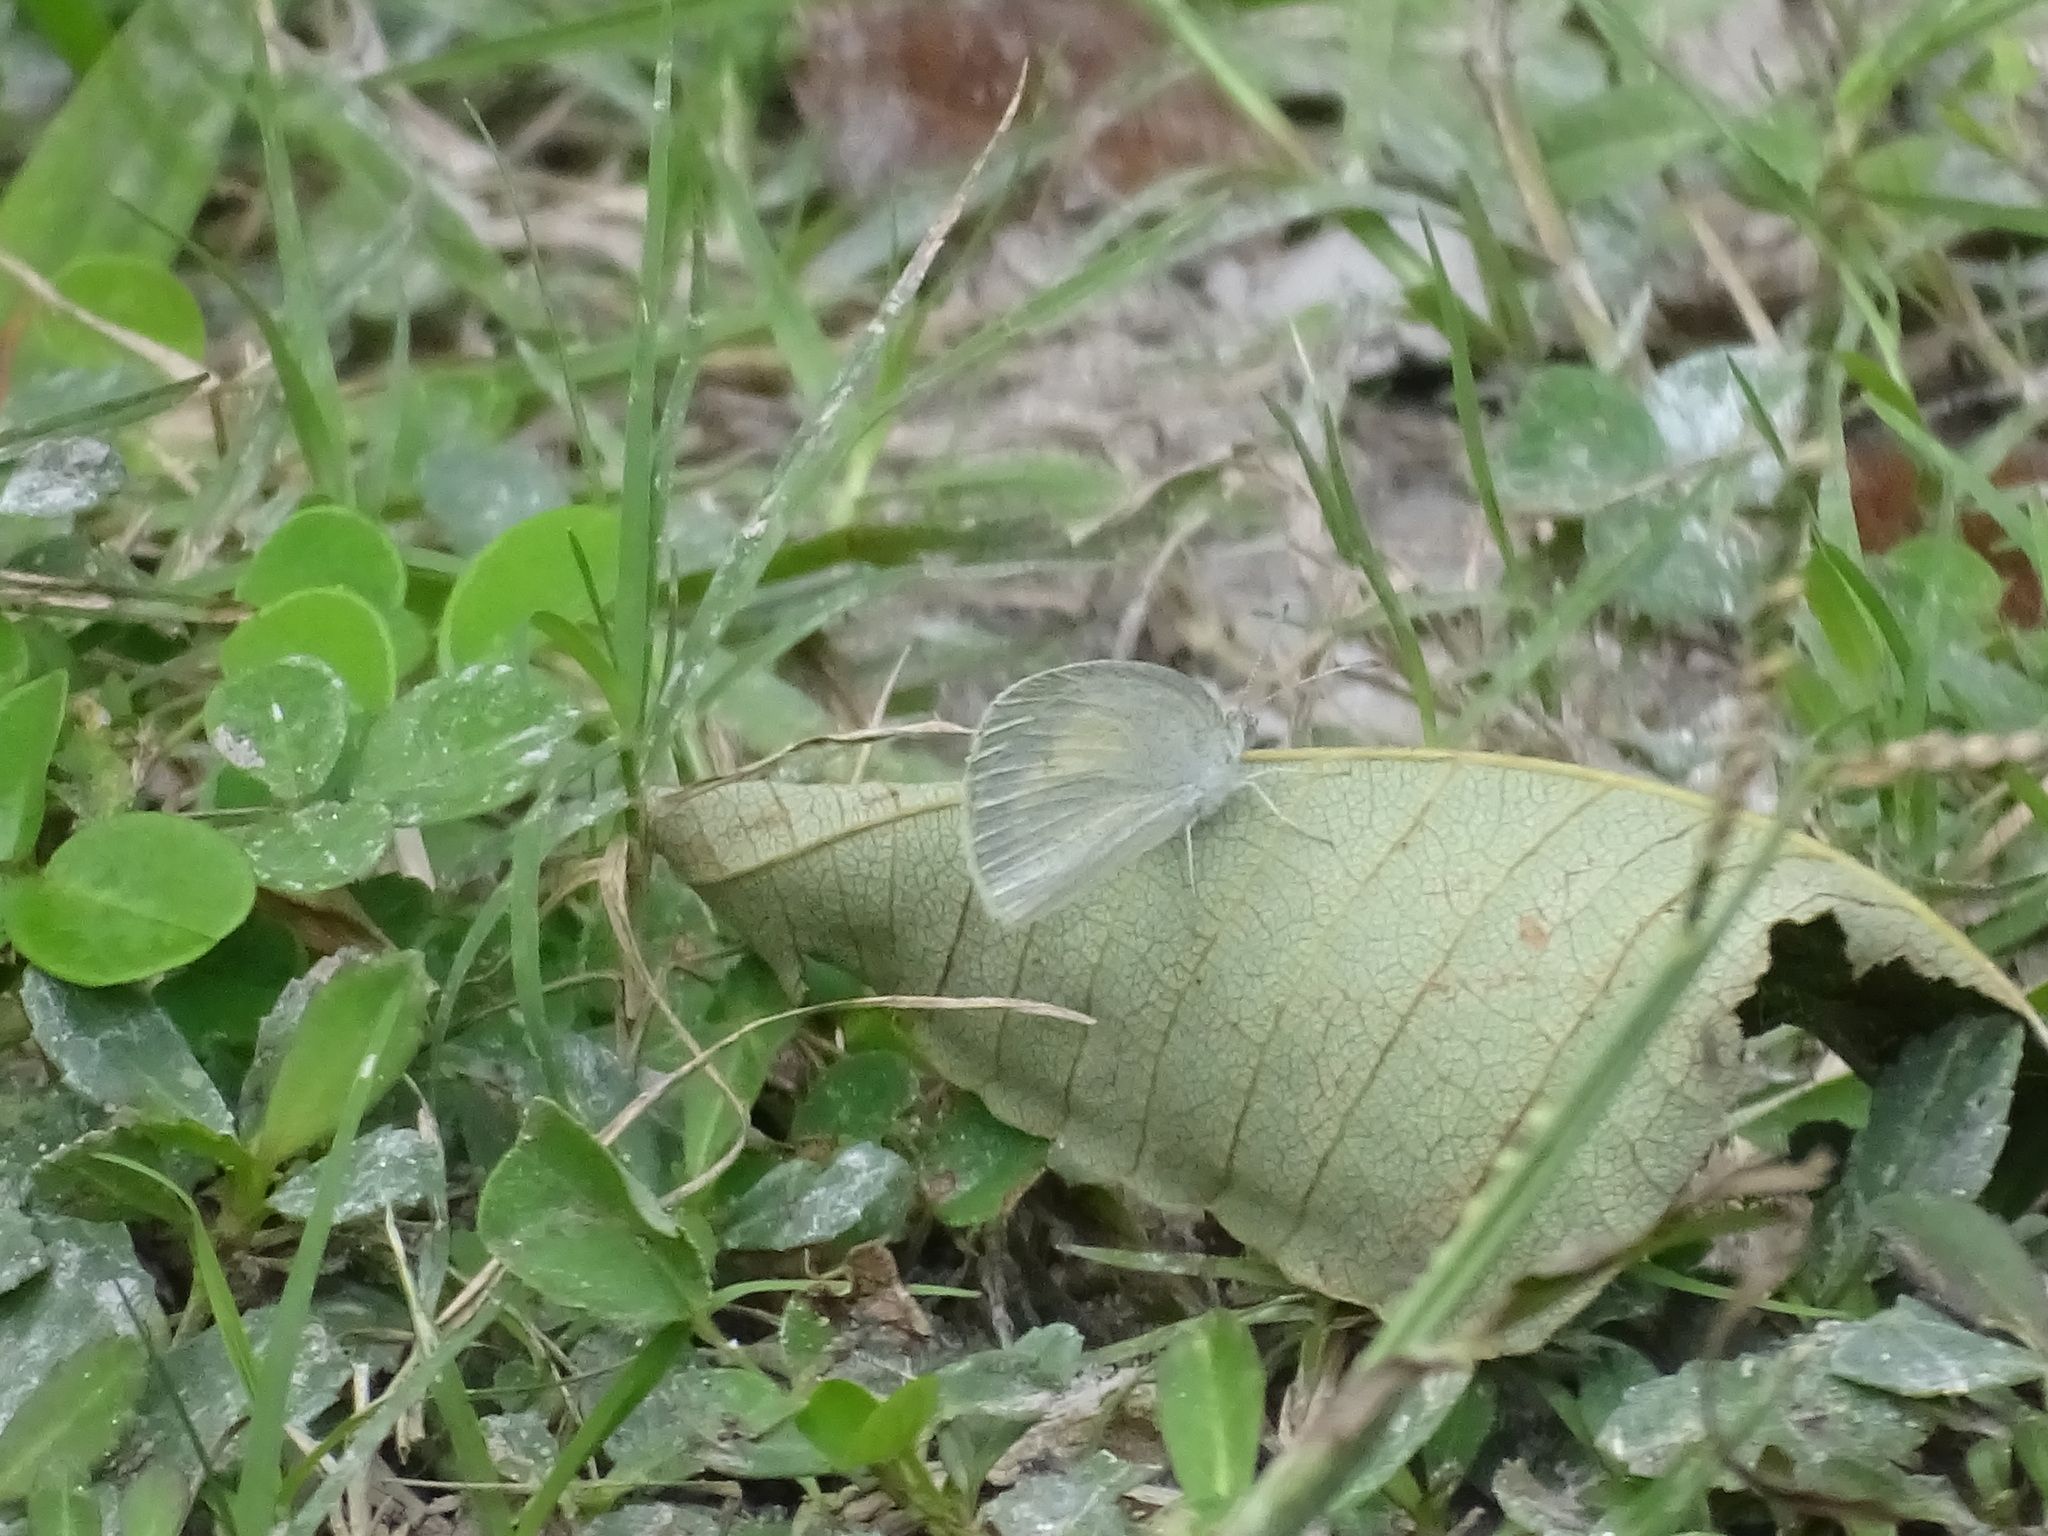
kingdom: Animalia
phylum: Arthropoda
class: Insecta
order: Lepidoptera
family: Pieridae
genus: Eurema
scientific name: Eurema daira
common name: Barred sulphur
